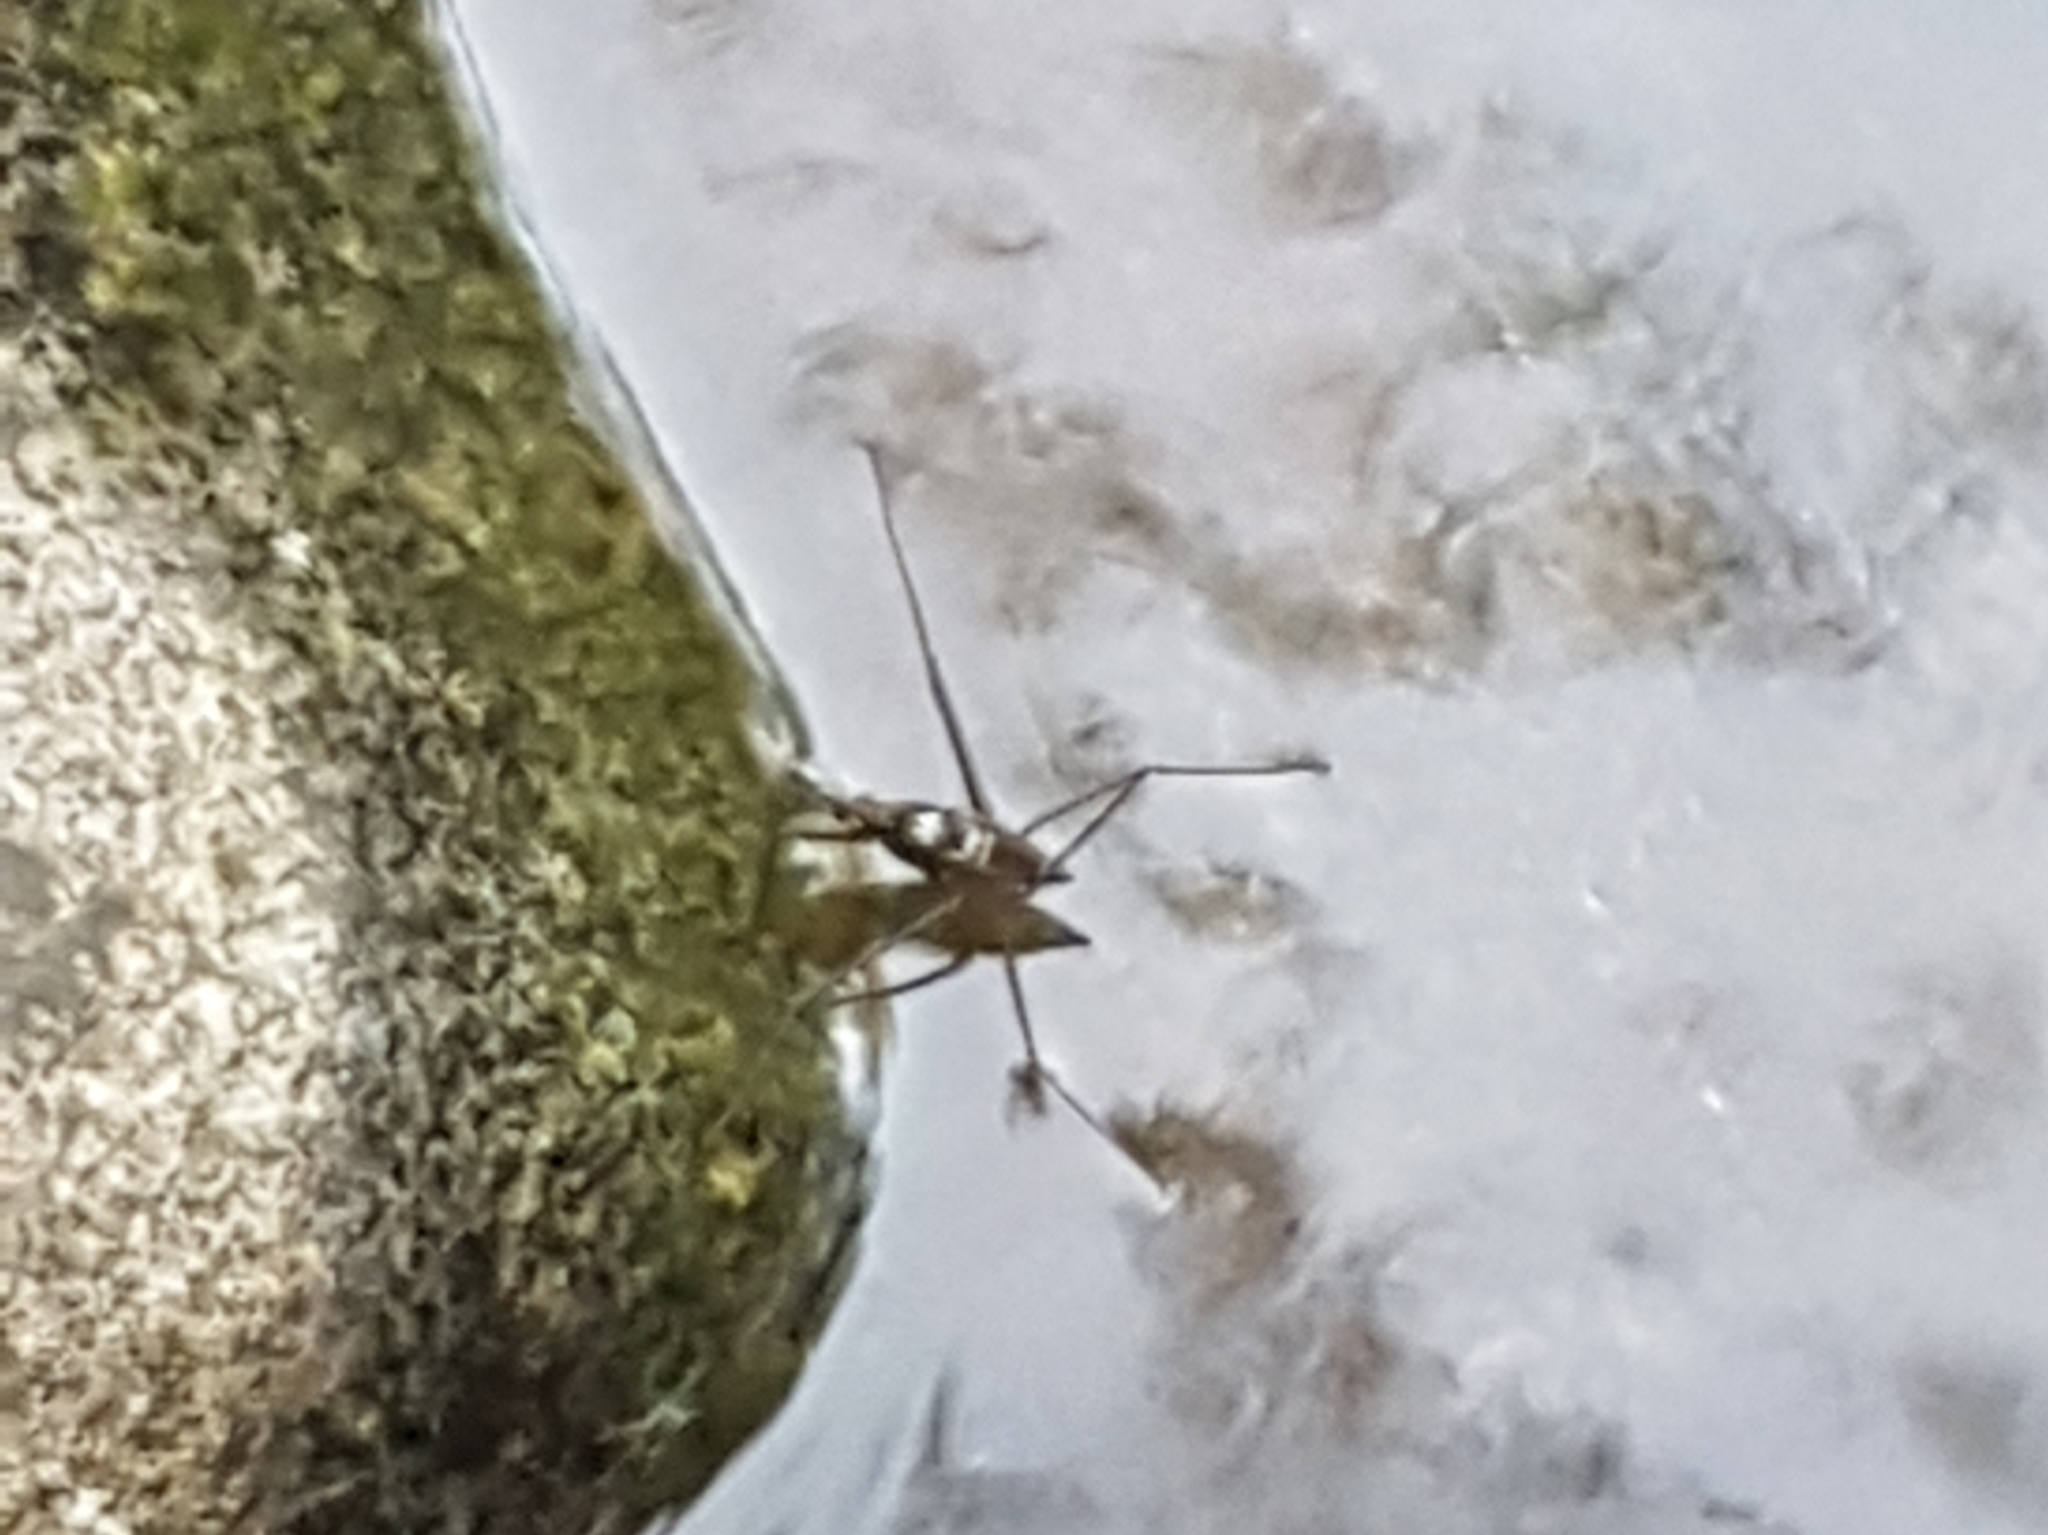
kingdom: Animalia
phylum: Arthropoda
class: Insecta
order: Hemiptera
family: Gerridae
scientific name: Gerridae
